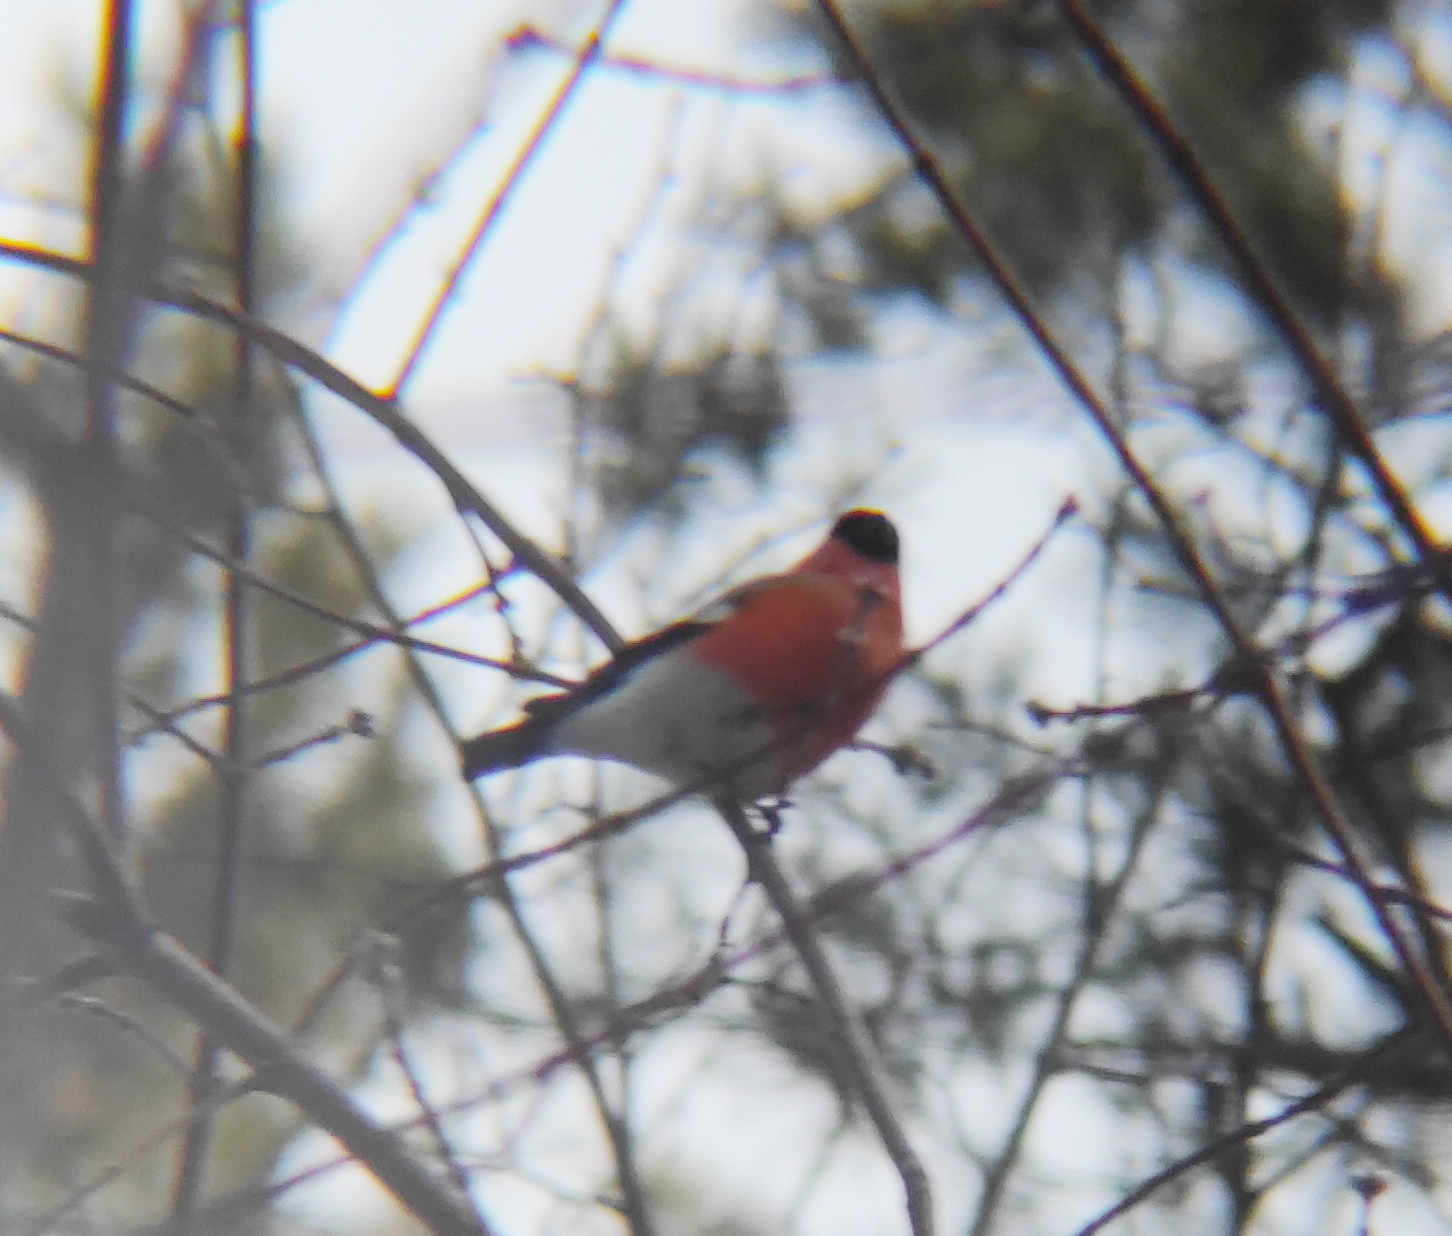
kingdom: Animalia
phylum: Chordata
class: Aves
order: Passeriformes
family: Fringillidae
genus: Pyrrhula
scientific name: Pyrrhula pyrrhula
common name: Eurasian bullfinch
